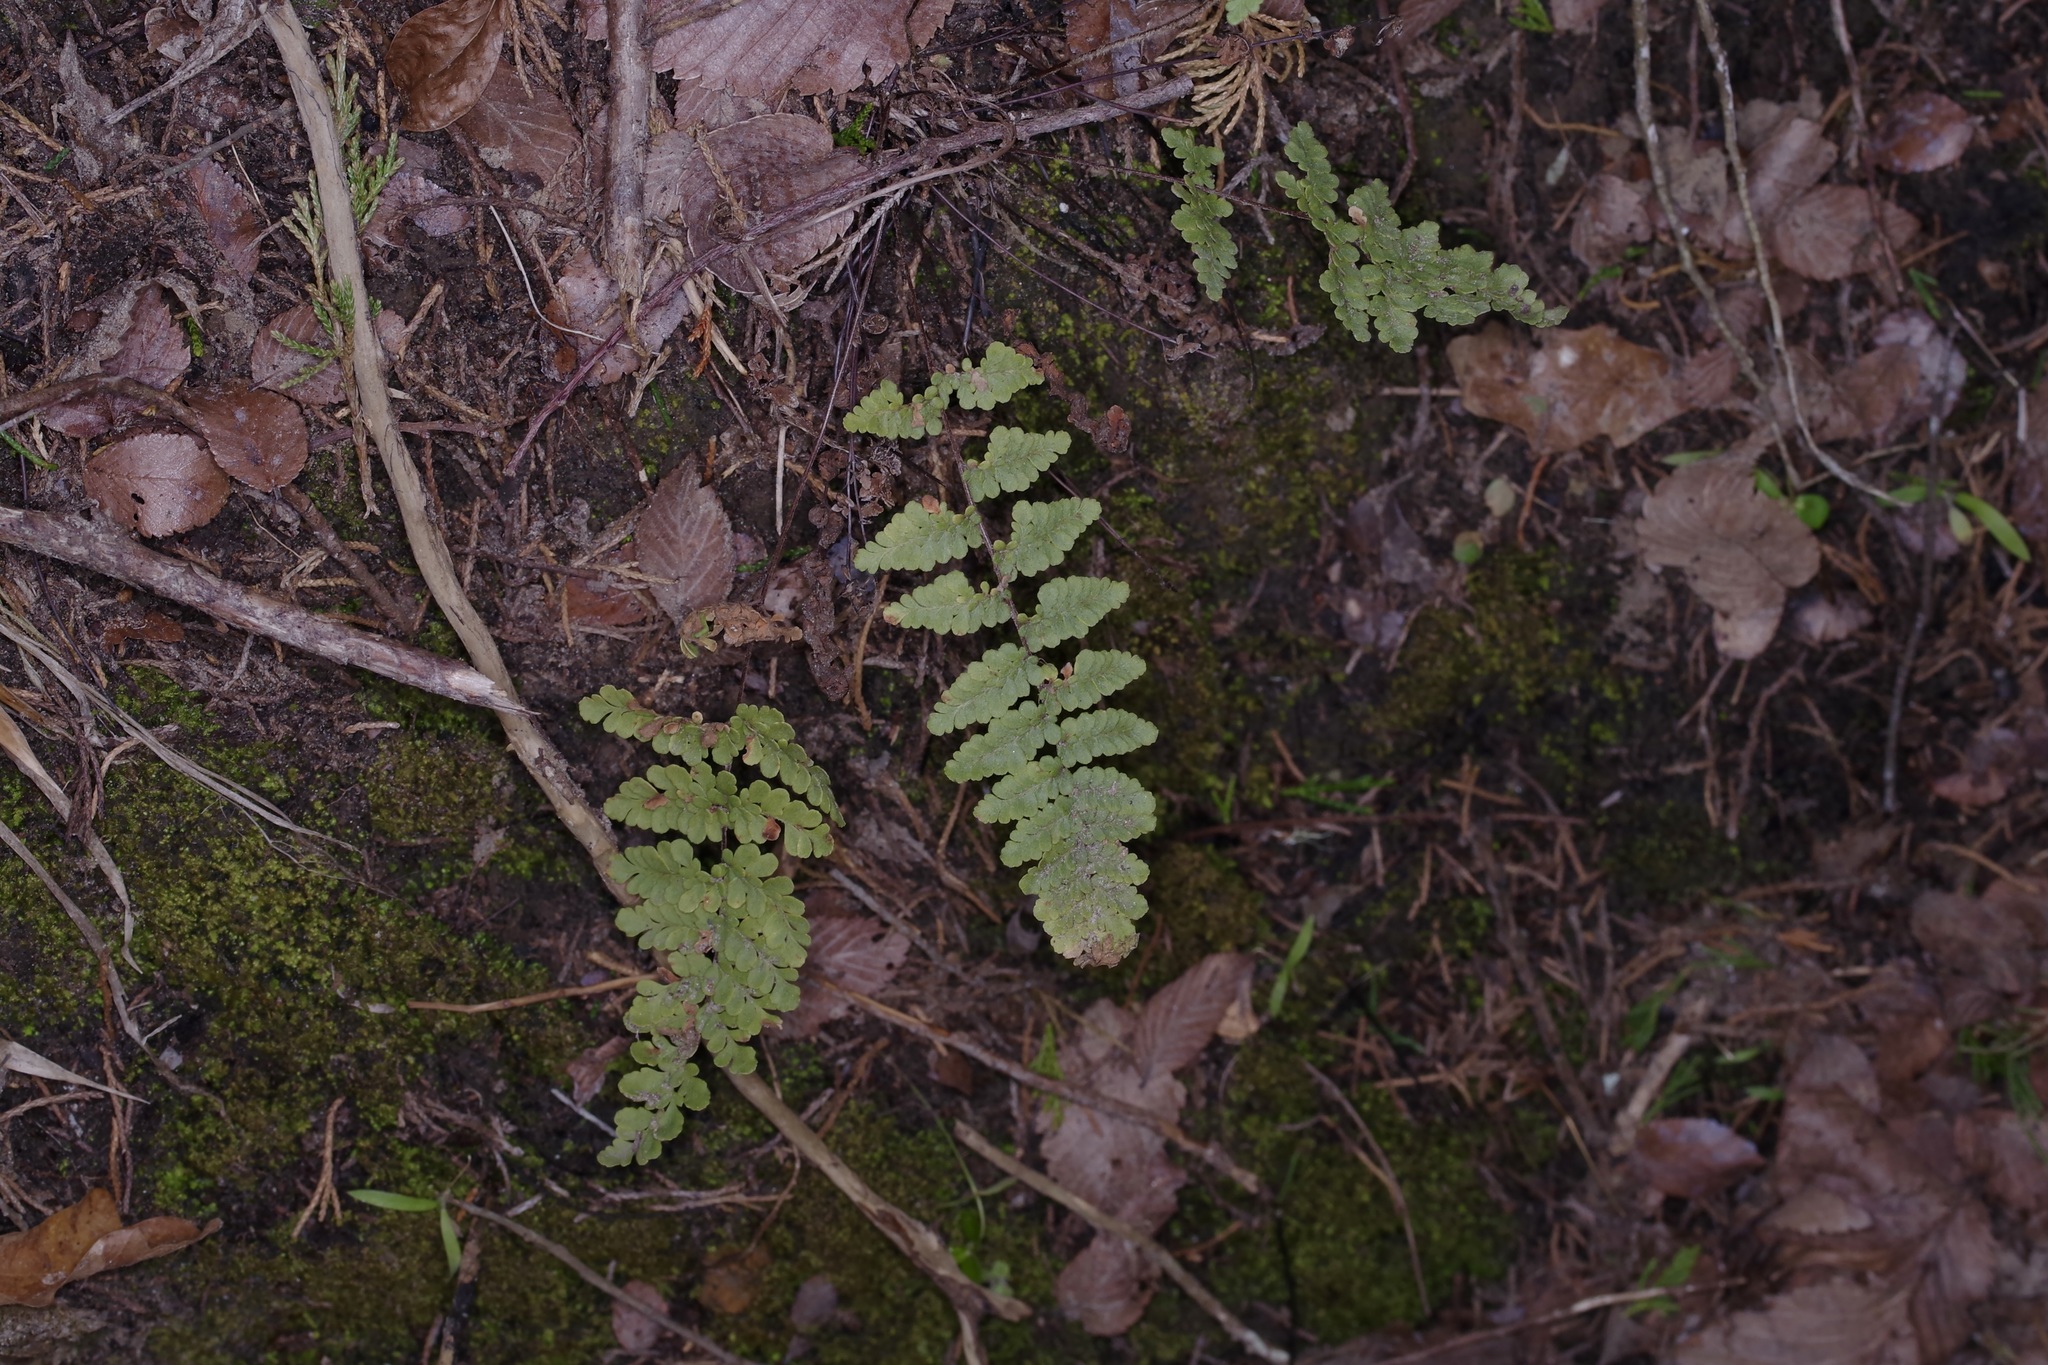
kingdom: Plantae
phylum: Tracheophyta
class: Polypodiopsida
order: Polypodiales
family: Pteridaceae
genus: Myriopteris
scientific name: Myriopteris tomentosa
